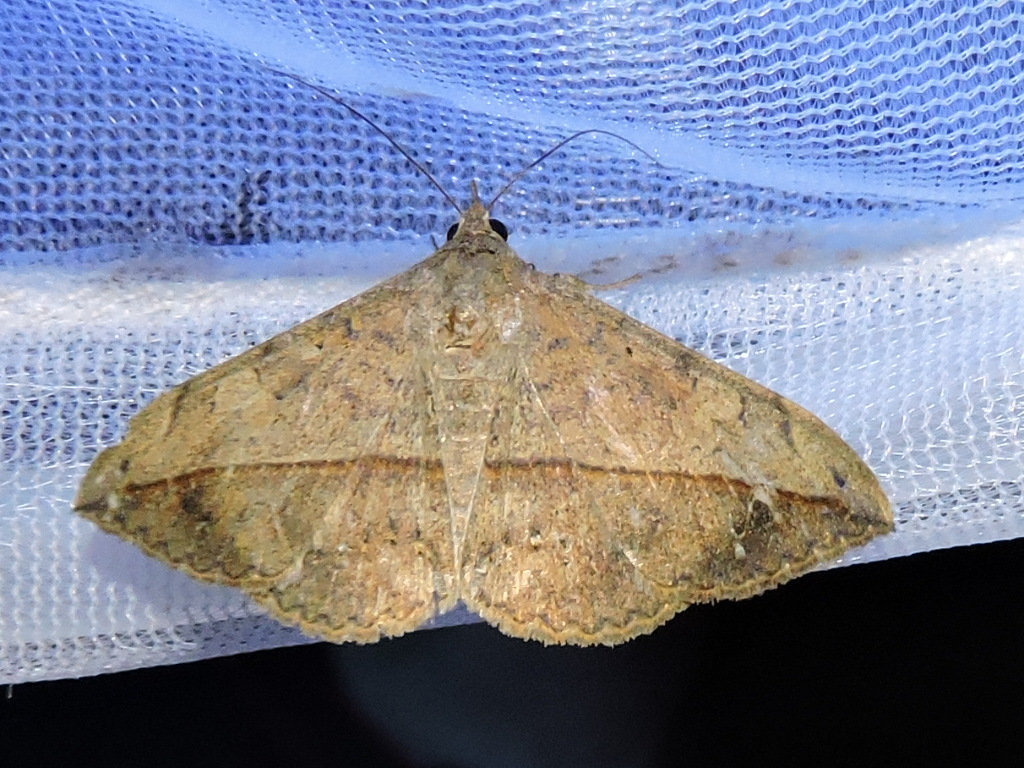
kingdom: Animalia
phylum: Arthropoda
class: Insecta
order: Lepidoptera
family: Erebidae
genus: Anticarsia
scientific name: Anticarsia gemmatalis
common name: Cutworm moth
